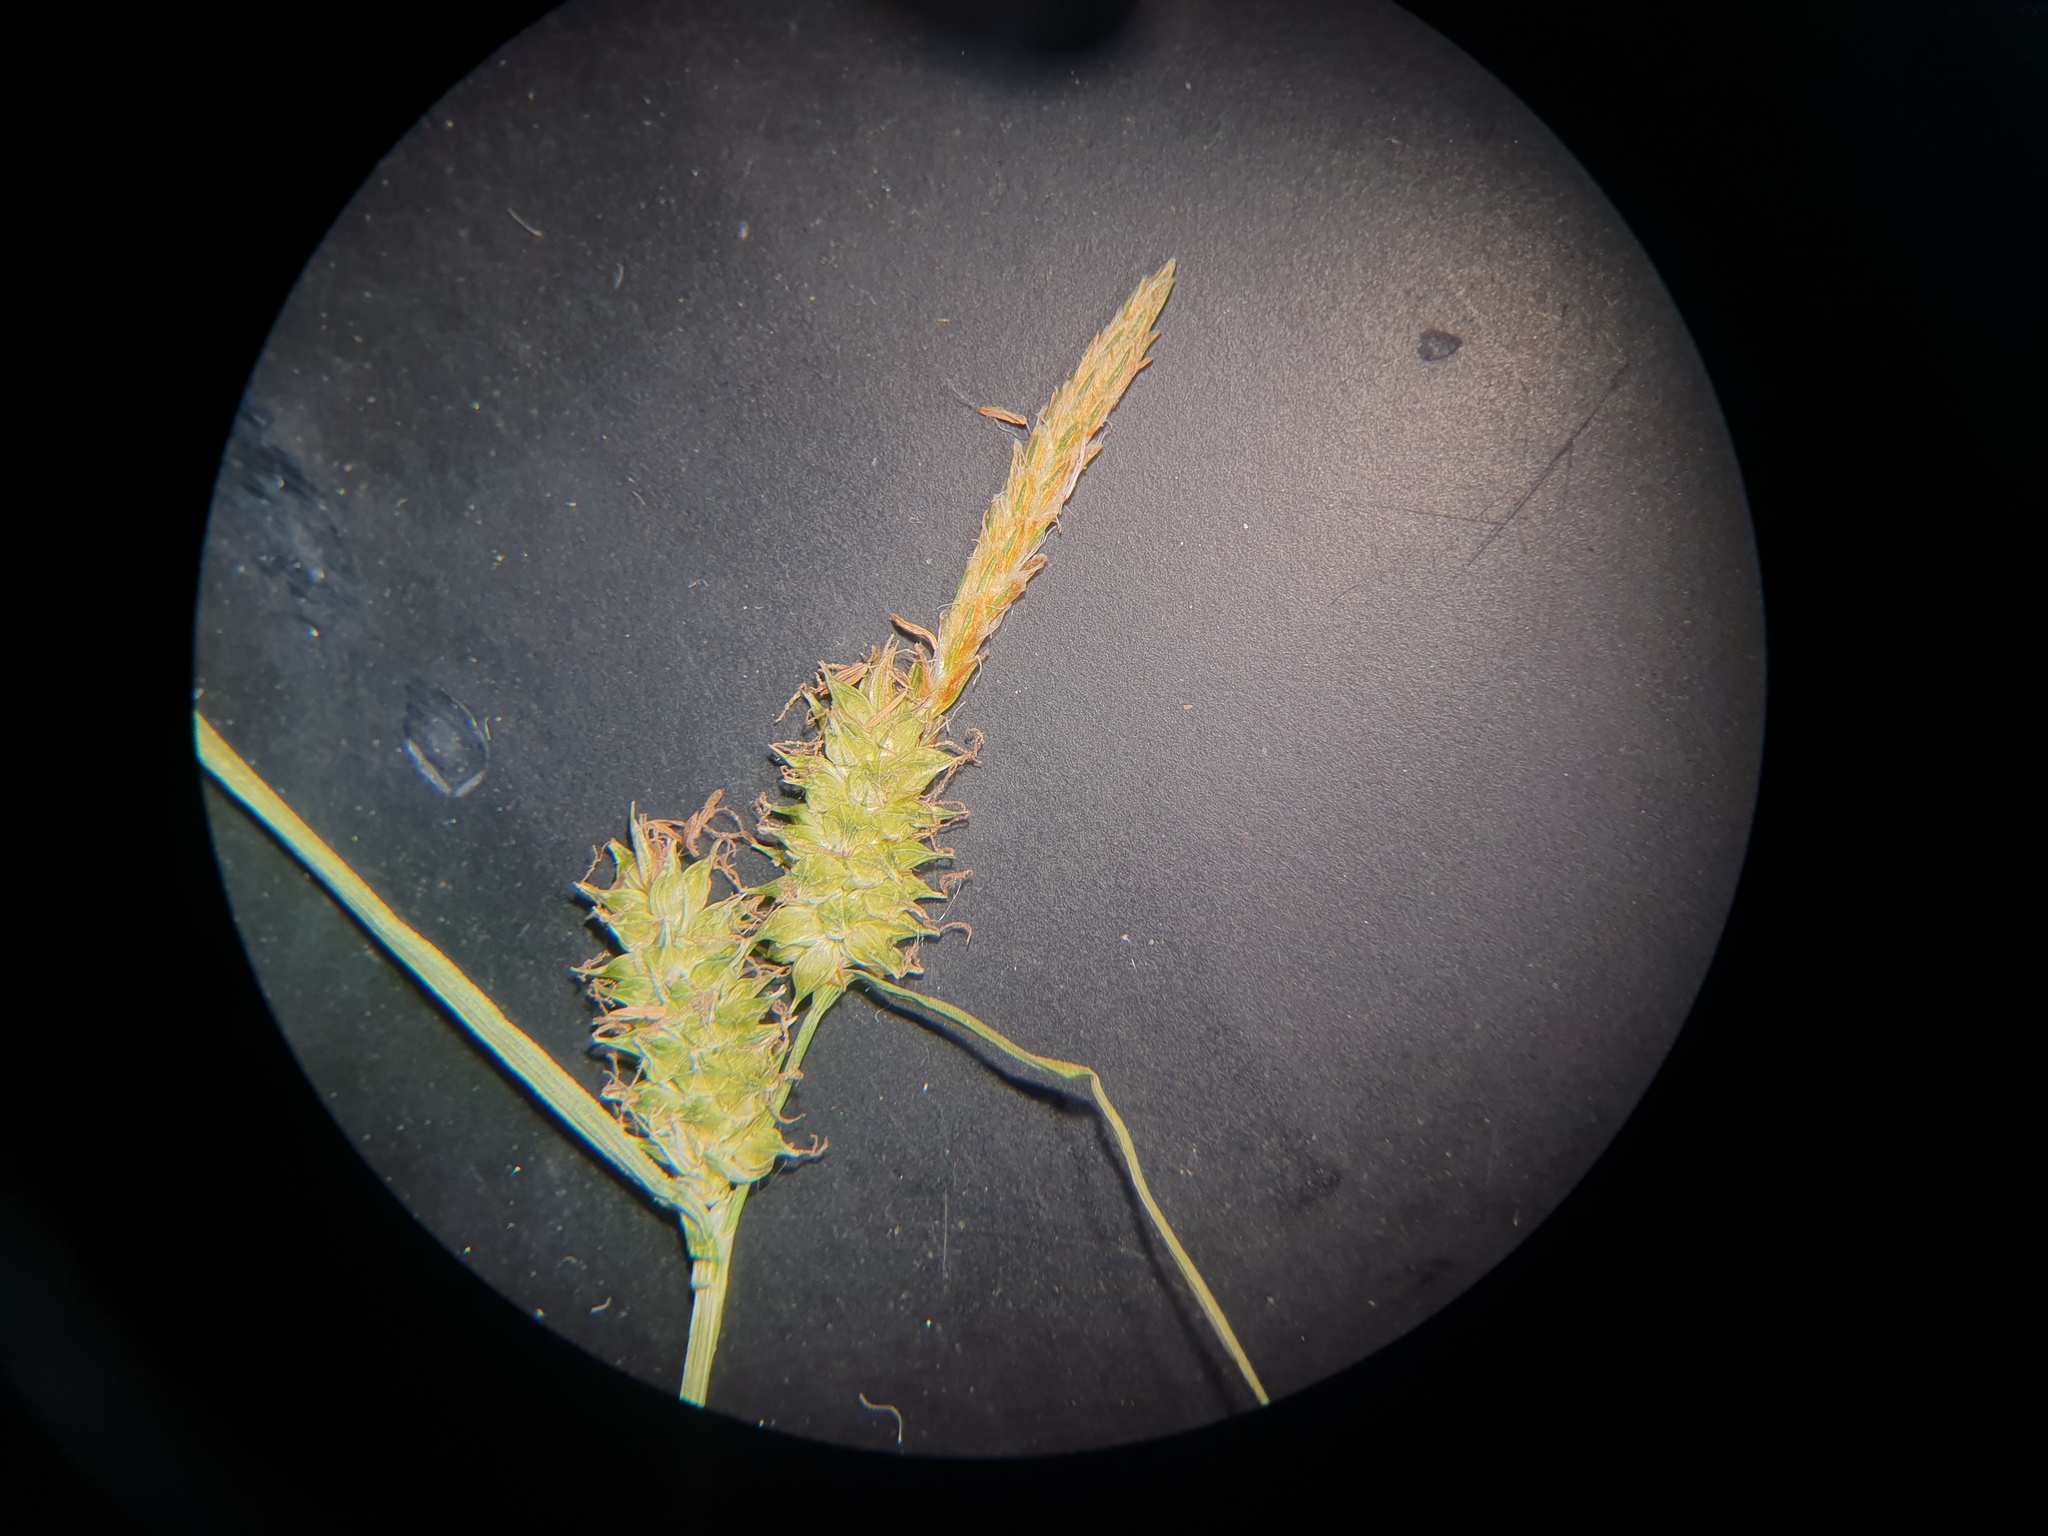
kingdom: Plantae
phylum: Tracheophyta
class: Liliopsida
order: Poales
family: Cyperaceae
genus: Carex
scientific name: Carex
